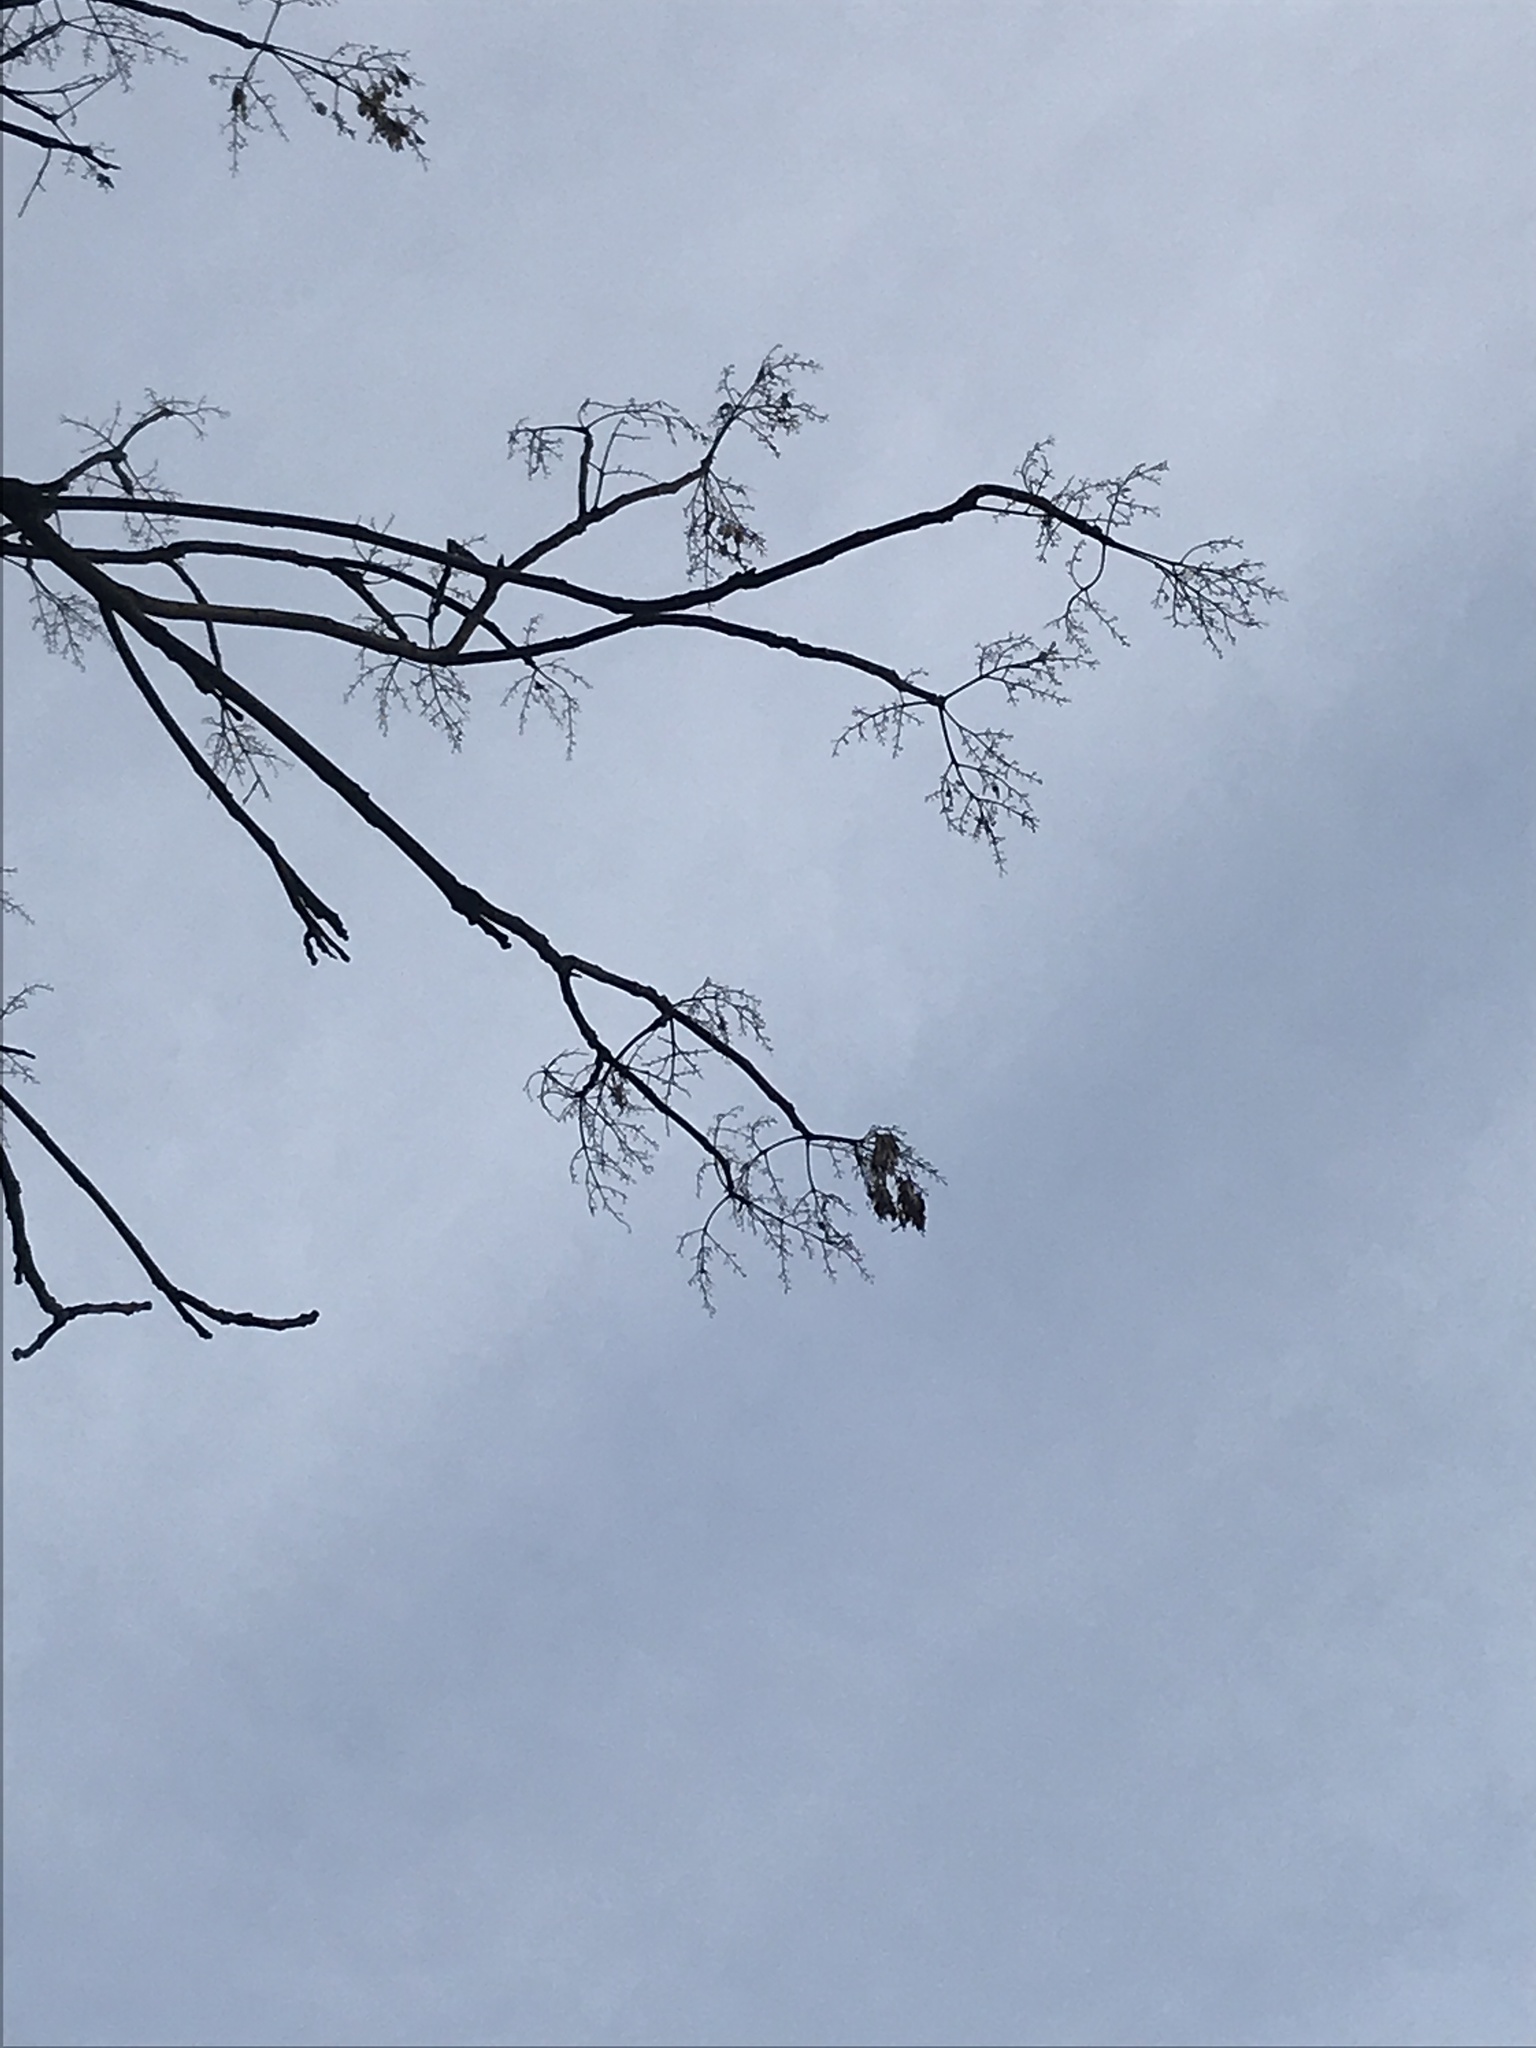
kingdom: Plantae
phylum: Tracheophyta
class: Magnoliopsida
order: Sapindales
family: Simaroubaceae
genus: Ailanthus
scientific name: Ailanthus altissima
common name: Tree-of-heaven
